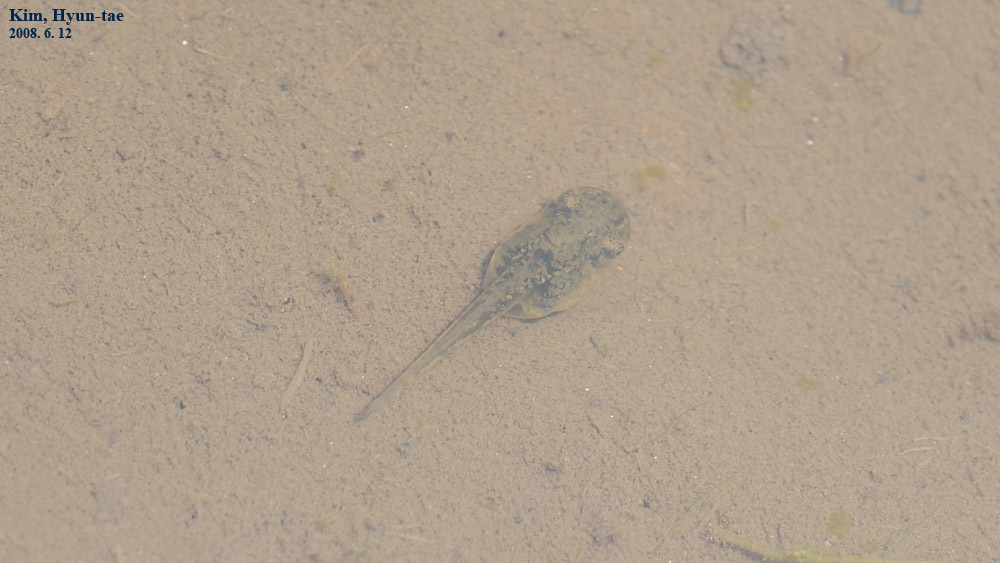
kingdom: Animalia
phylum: Chordata
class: Amphibia
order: Anura
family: Hylidae
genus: Dryophytes
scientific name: Dryophytes japonicus
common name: Japanese treefrog
